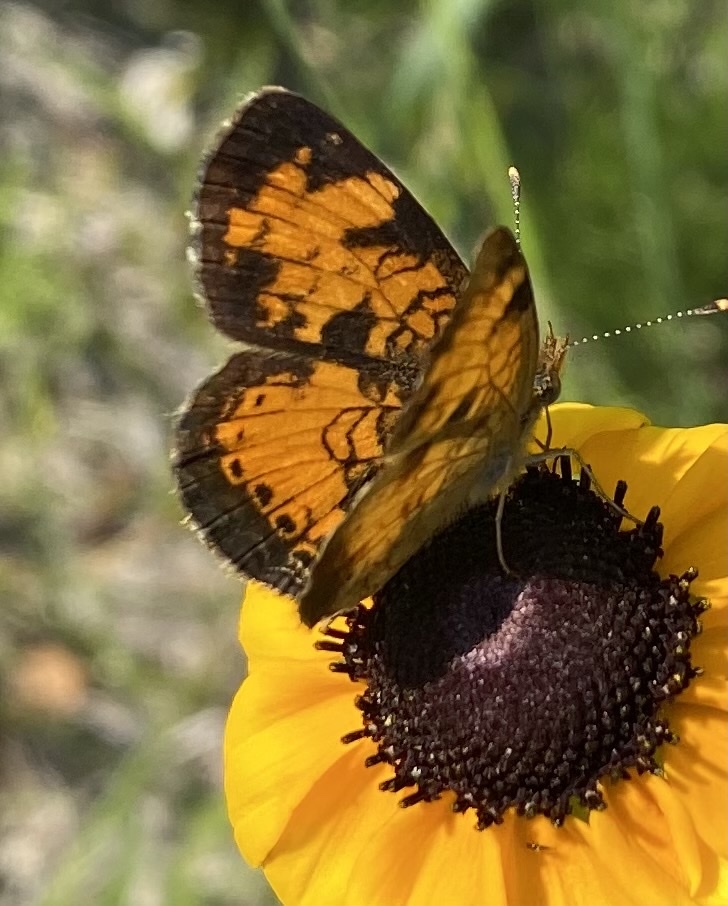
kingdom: Animalia
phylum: Arthropoda
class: Insecta
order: Lepidoptera
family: Nymphalidae
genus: Phyciodes
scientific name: Phyciodes tharos
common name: Pearl crescent
